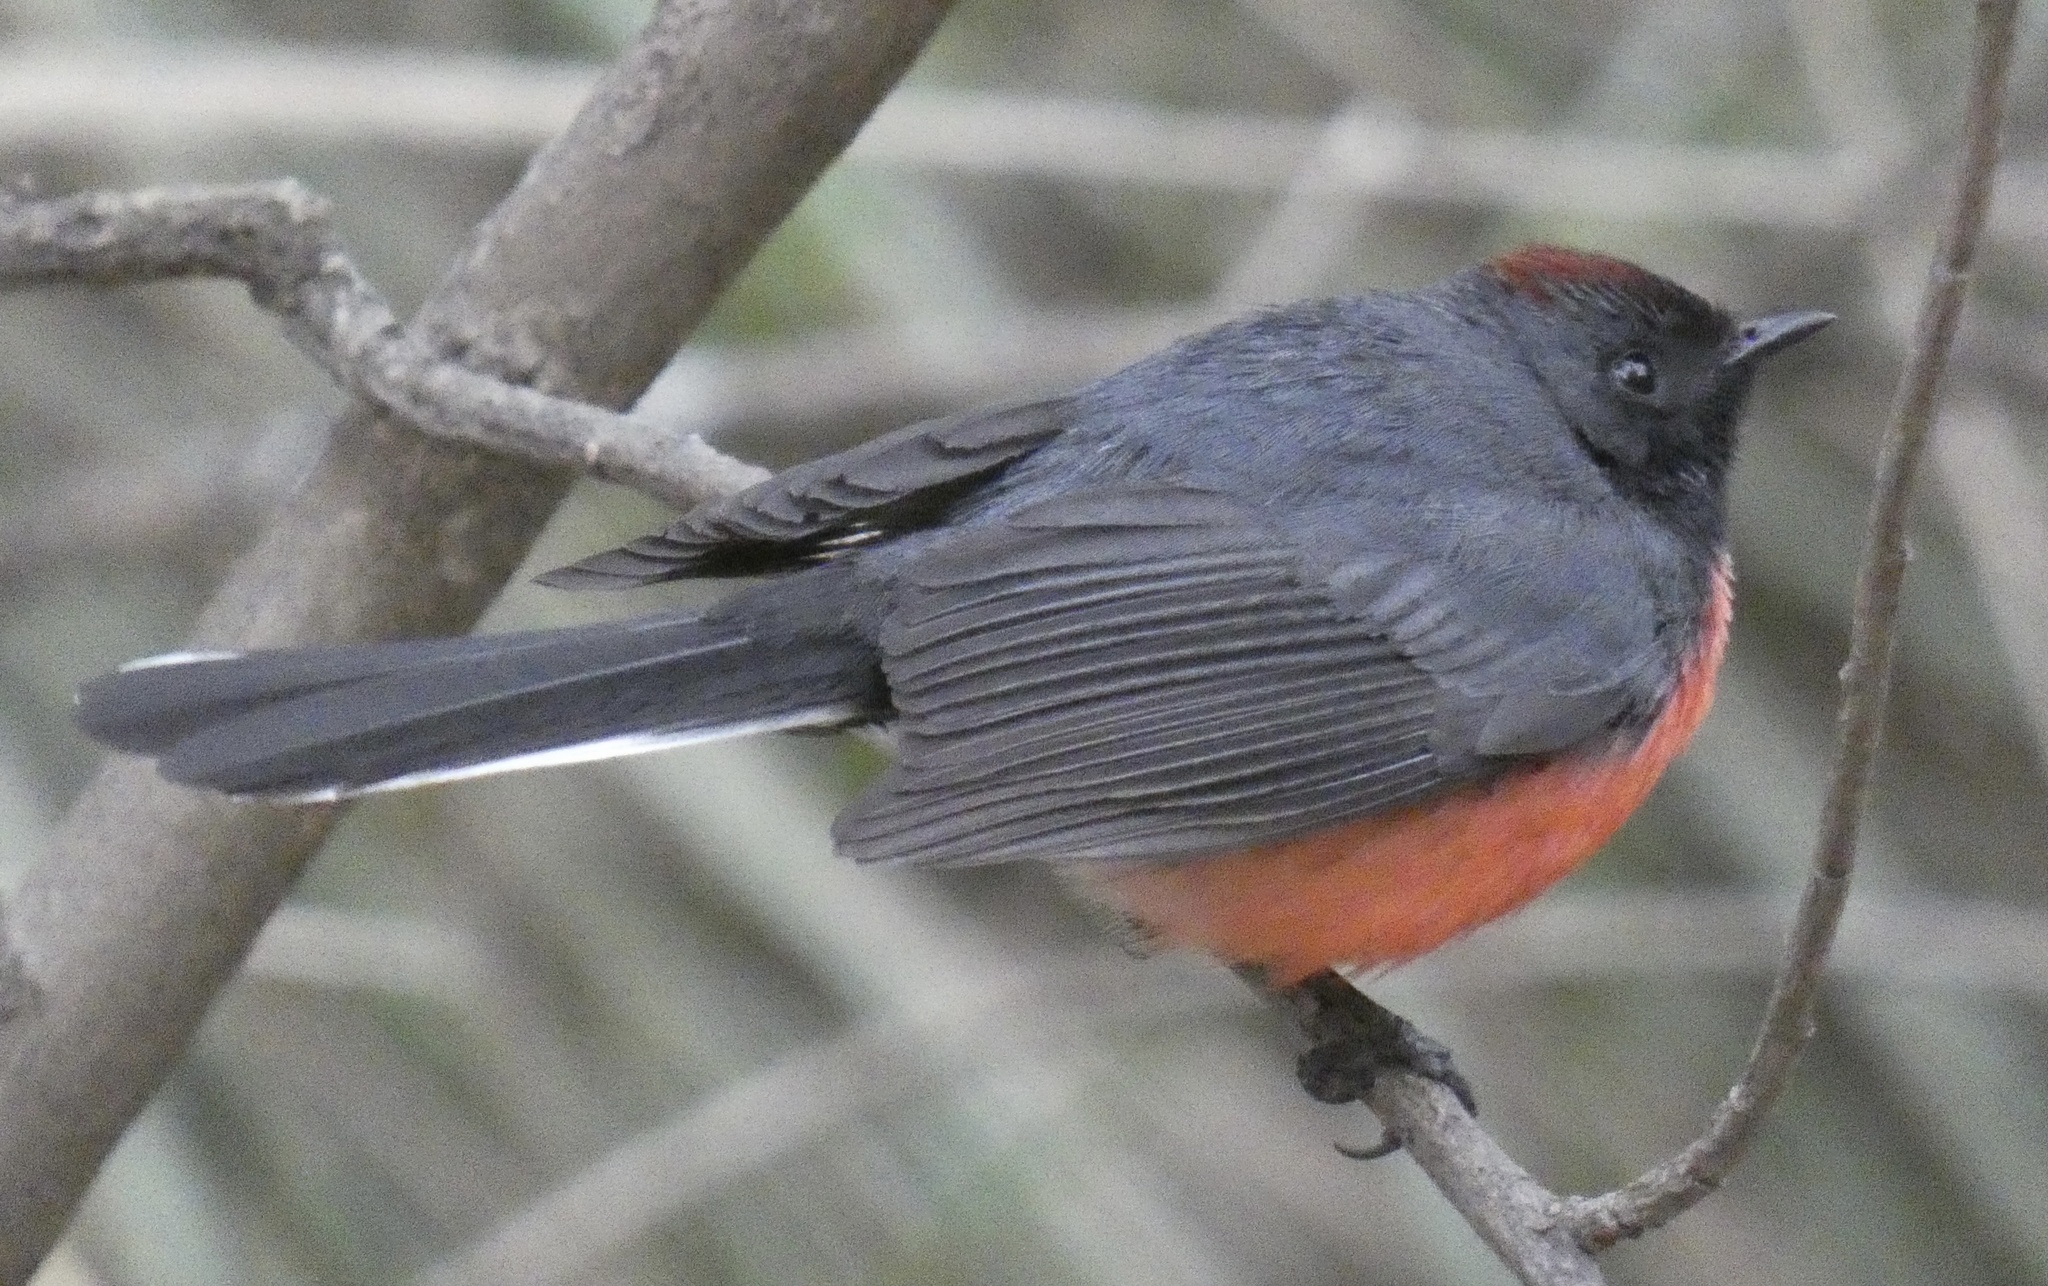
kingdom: Animalia
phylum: Chordata
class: Aves
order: Passeriformes
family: Parulidae
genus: Myioborus
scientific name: Myioborus miniatus
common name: Slate-throated redstart
